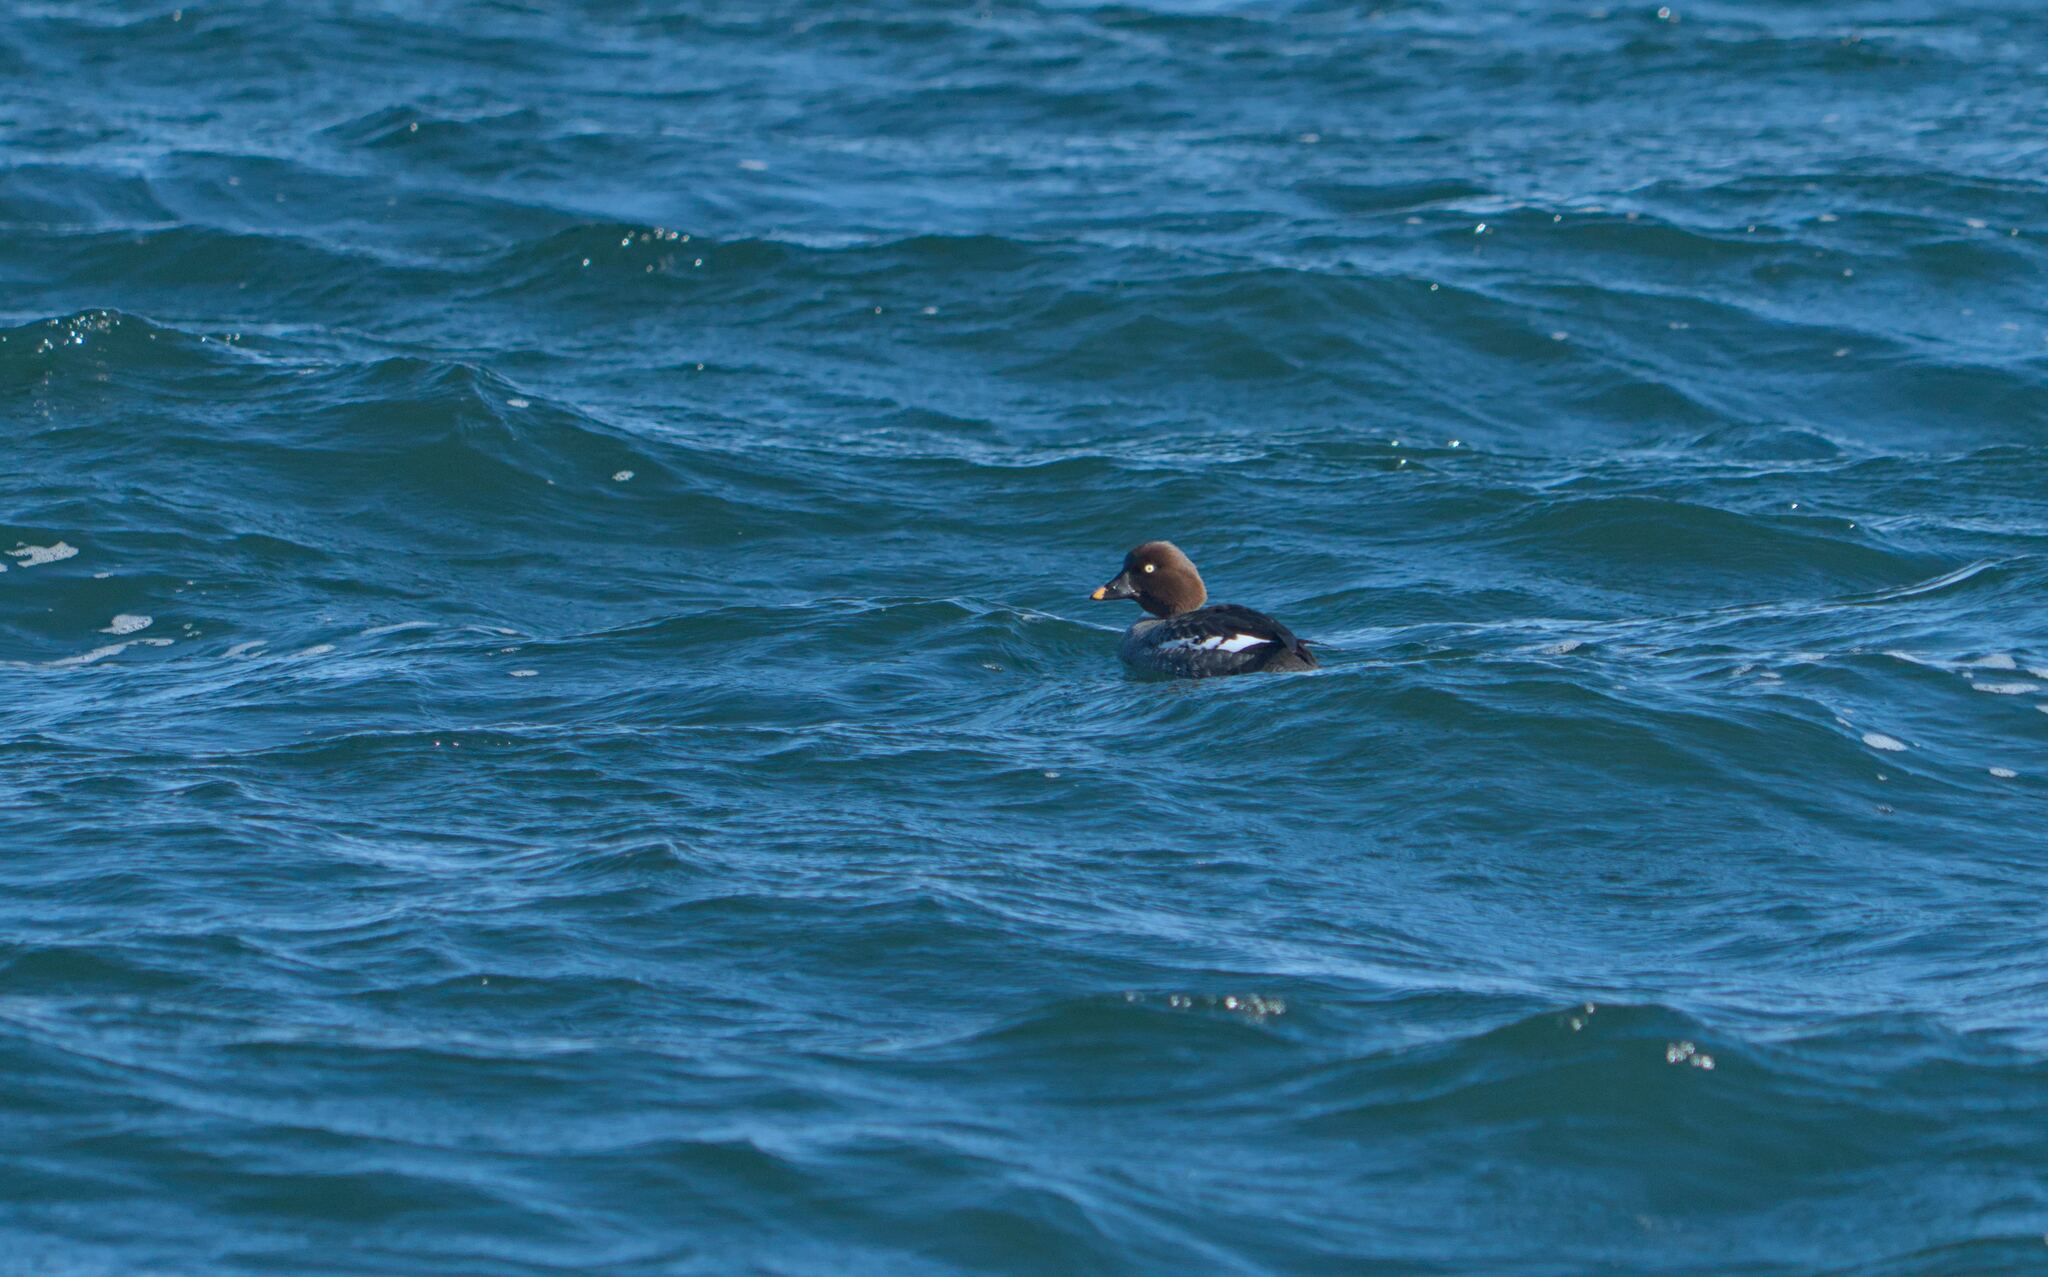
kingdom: Animalia
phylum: Chordata
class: Aves
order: Anseriformes
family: Anatidae
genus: Bucephala
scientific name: Bucephala clangula
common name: Common goldeneye
